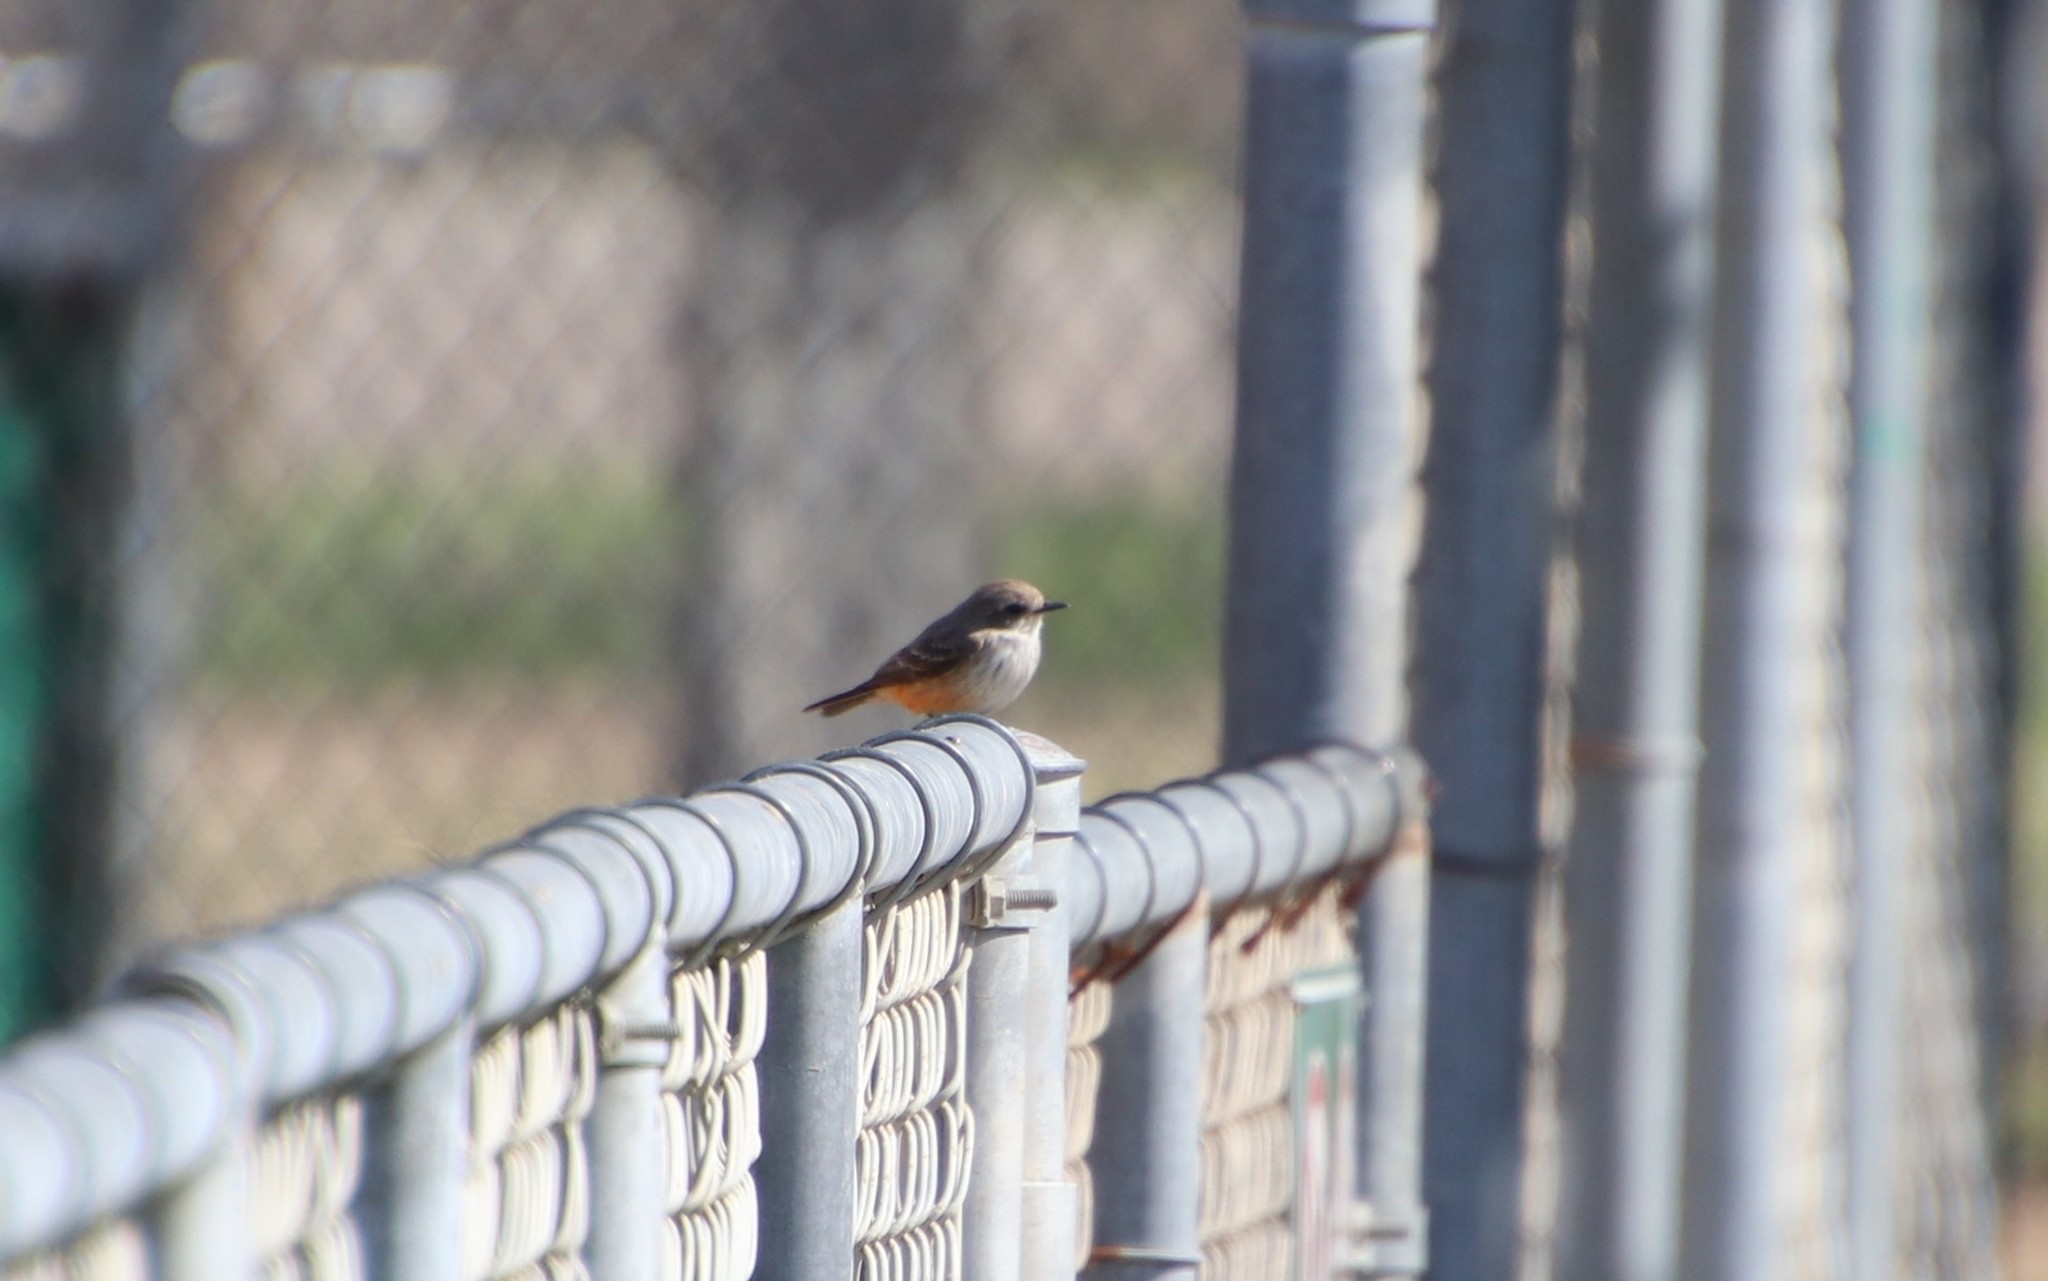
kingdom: Animalia
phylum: Chordata
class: Aves
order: Passeriformes
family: Tyrannidae
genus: Pyrocephalus
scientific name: Pyrocephalus rubinus
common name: Vermilion flycatcher
